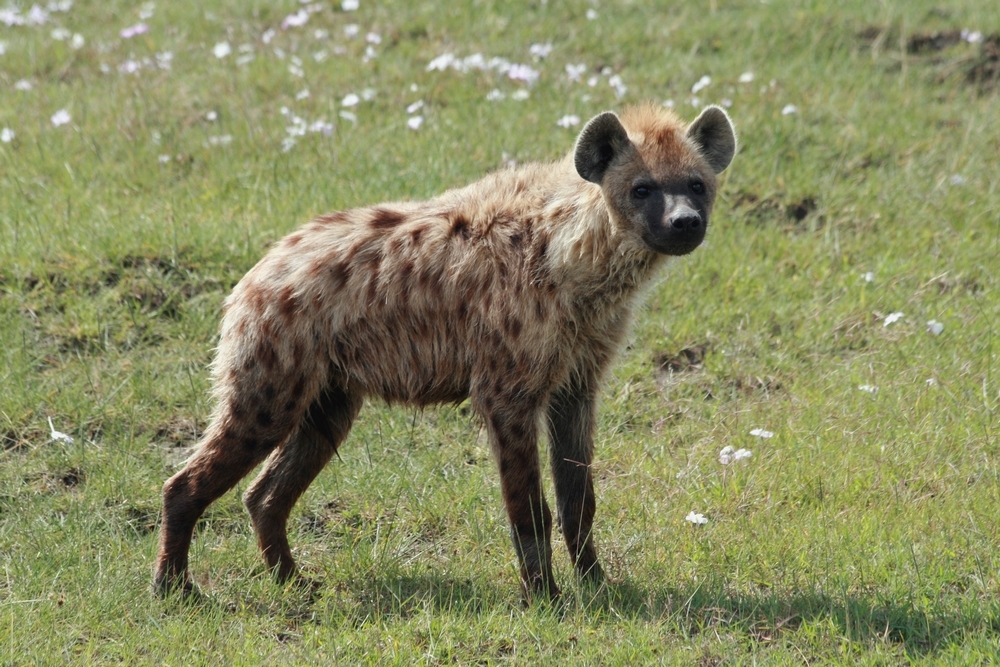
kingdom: Animalia
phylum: Chordata
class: Mammalia
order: Carnivora
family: Hyaenidae
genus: Crocuta
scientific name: Crocuta crocuta
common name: Spotted hyaena
